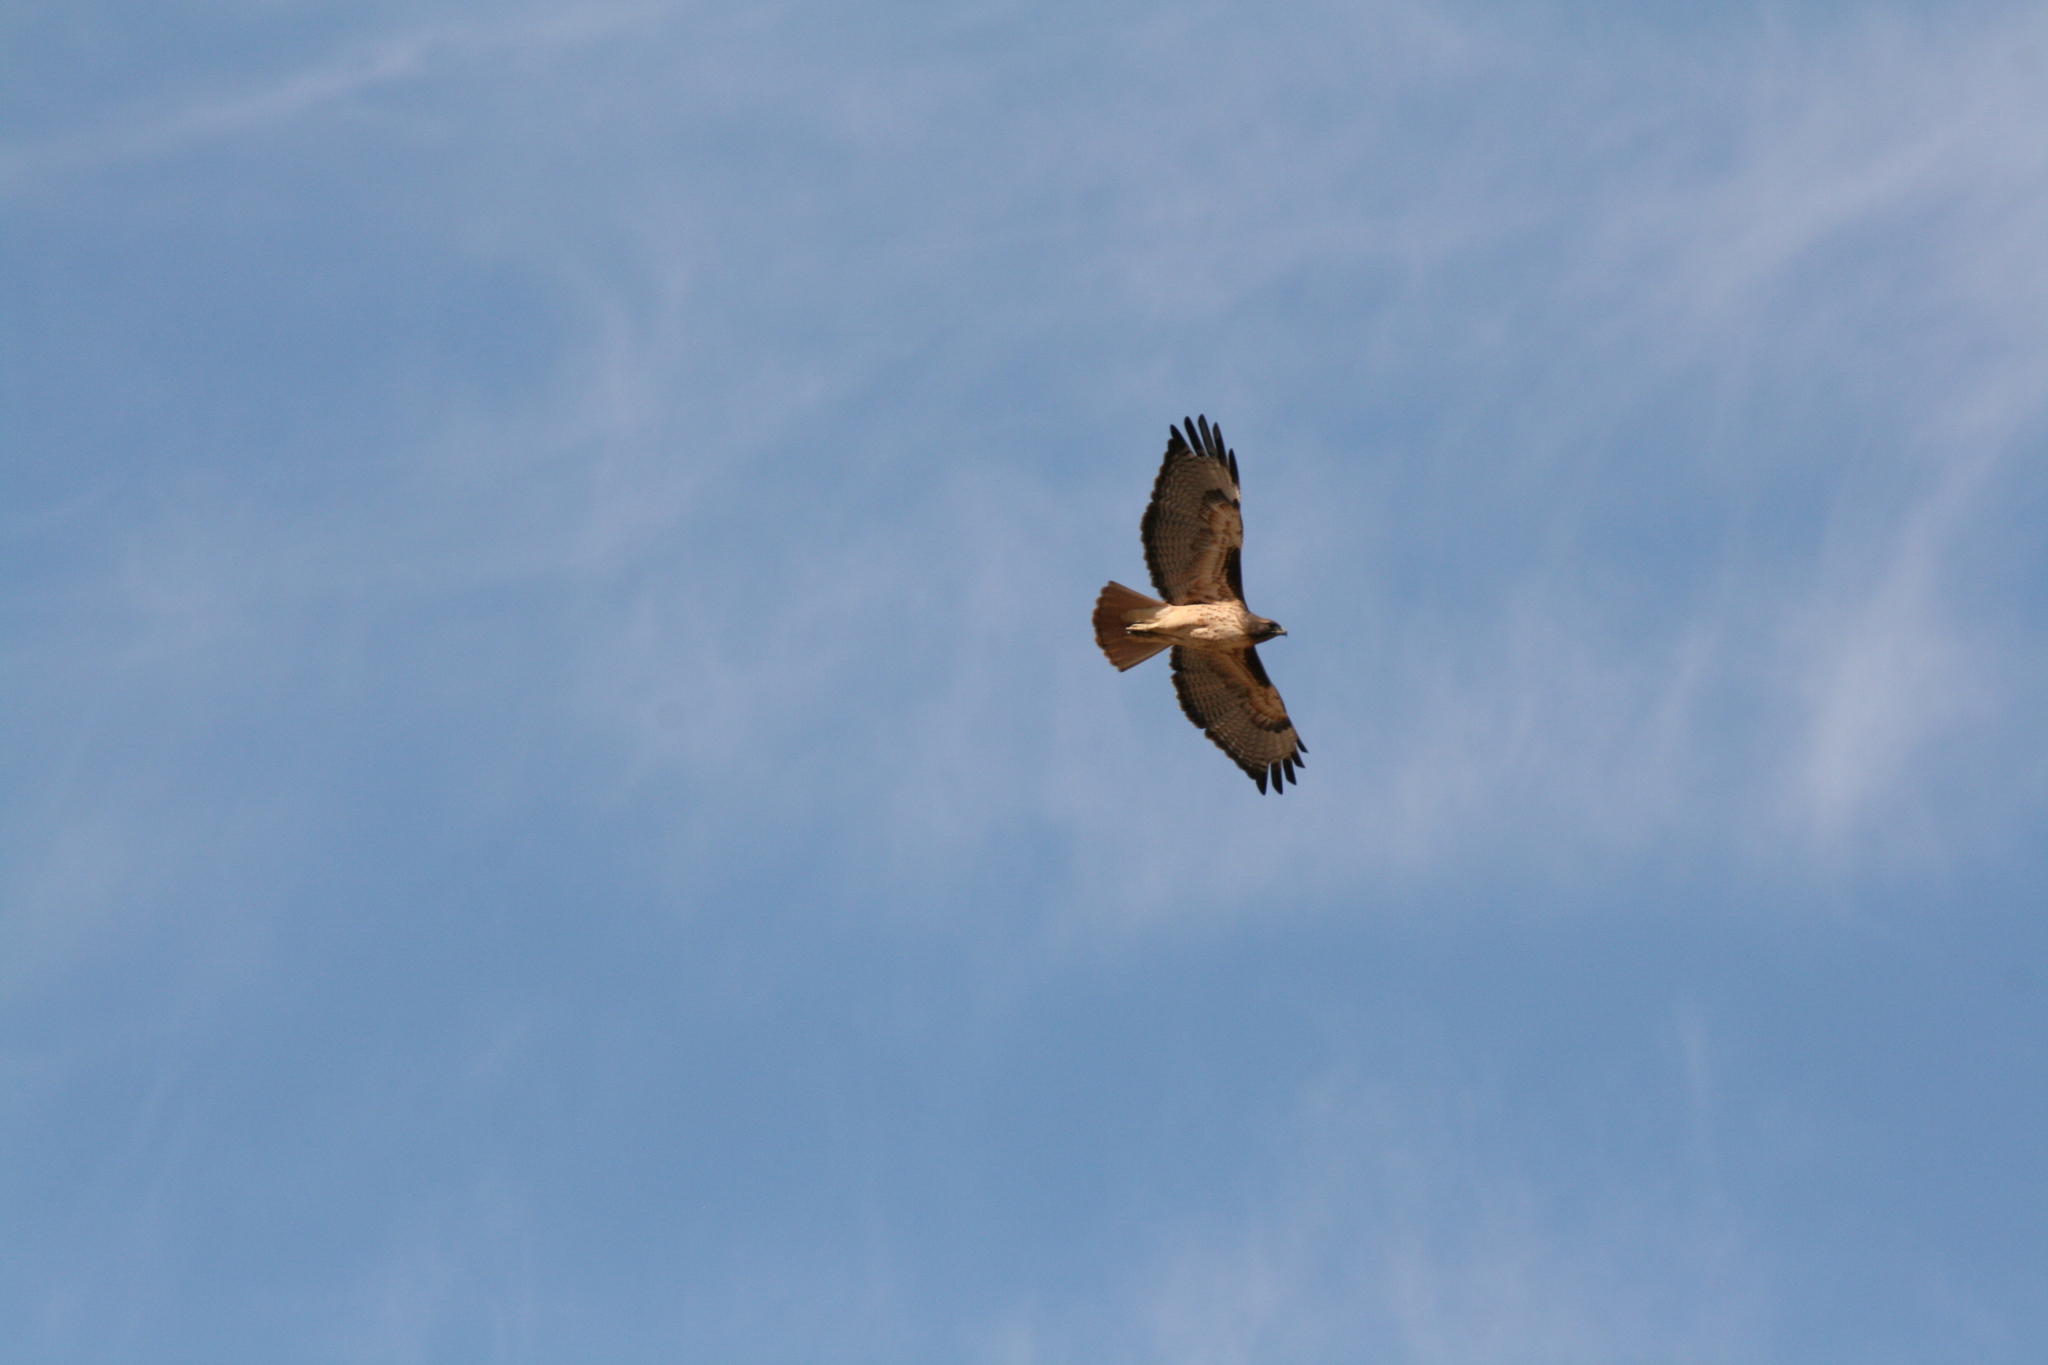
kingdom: Animalia
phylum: Chordata
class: Aves
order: Accipitriformes
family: Accipitridae
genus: Buteo
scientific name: Buteo jamaicensis
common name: Red-tailed hawk
